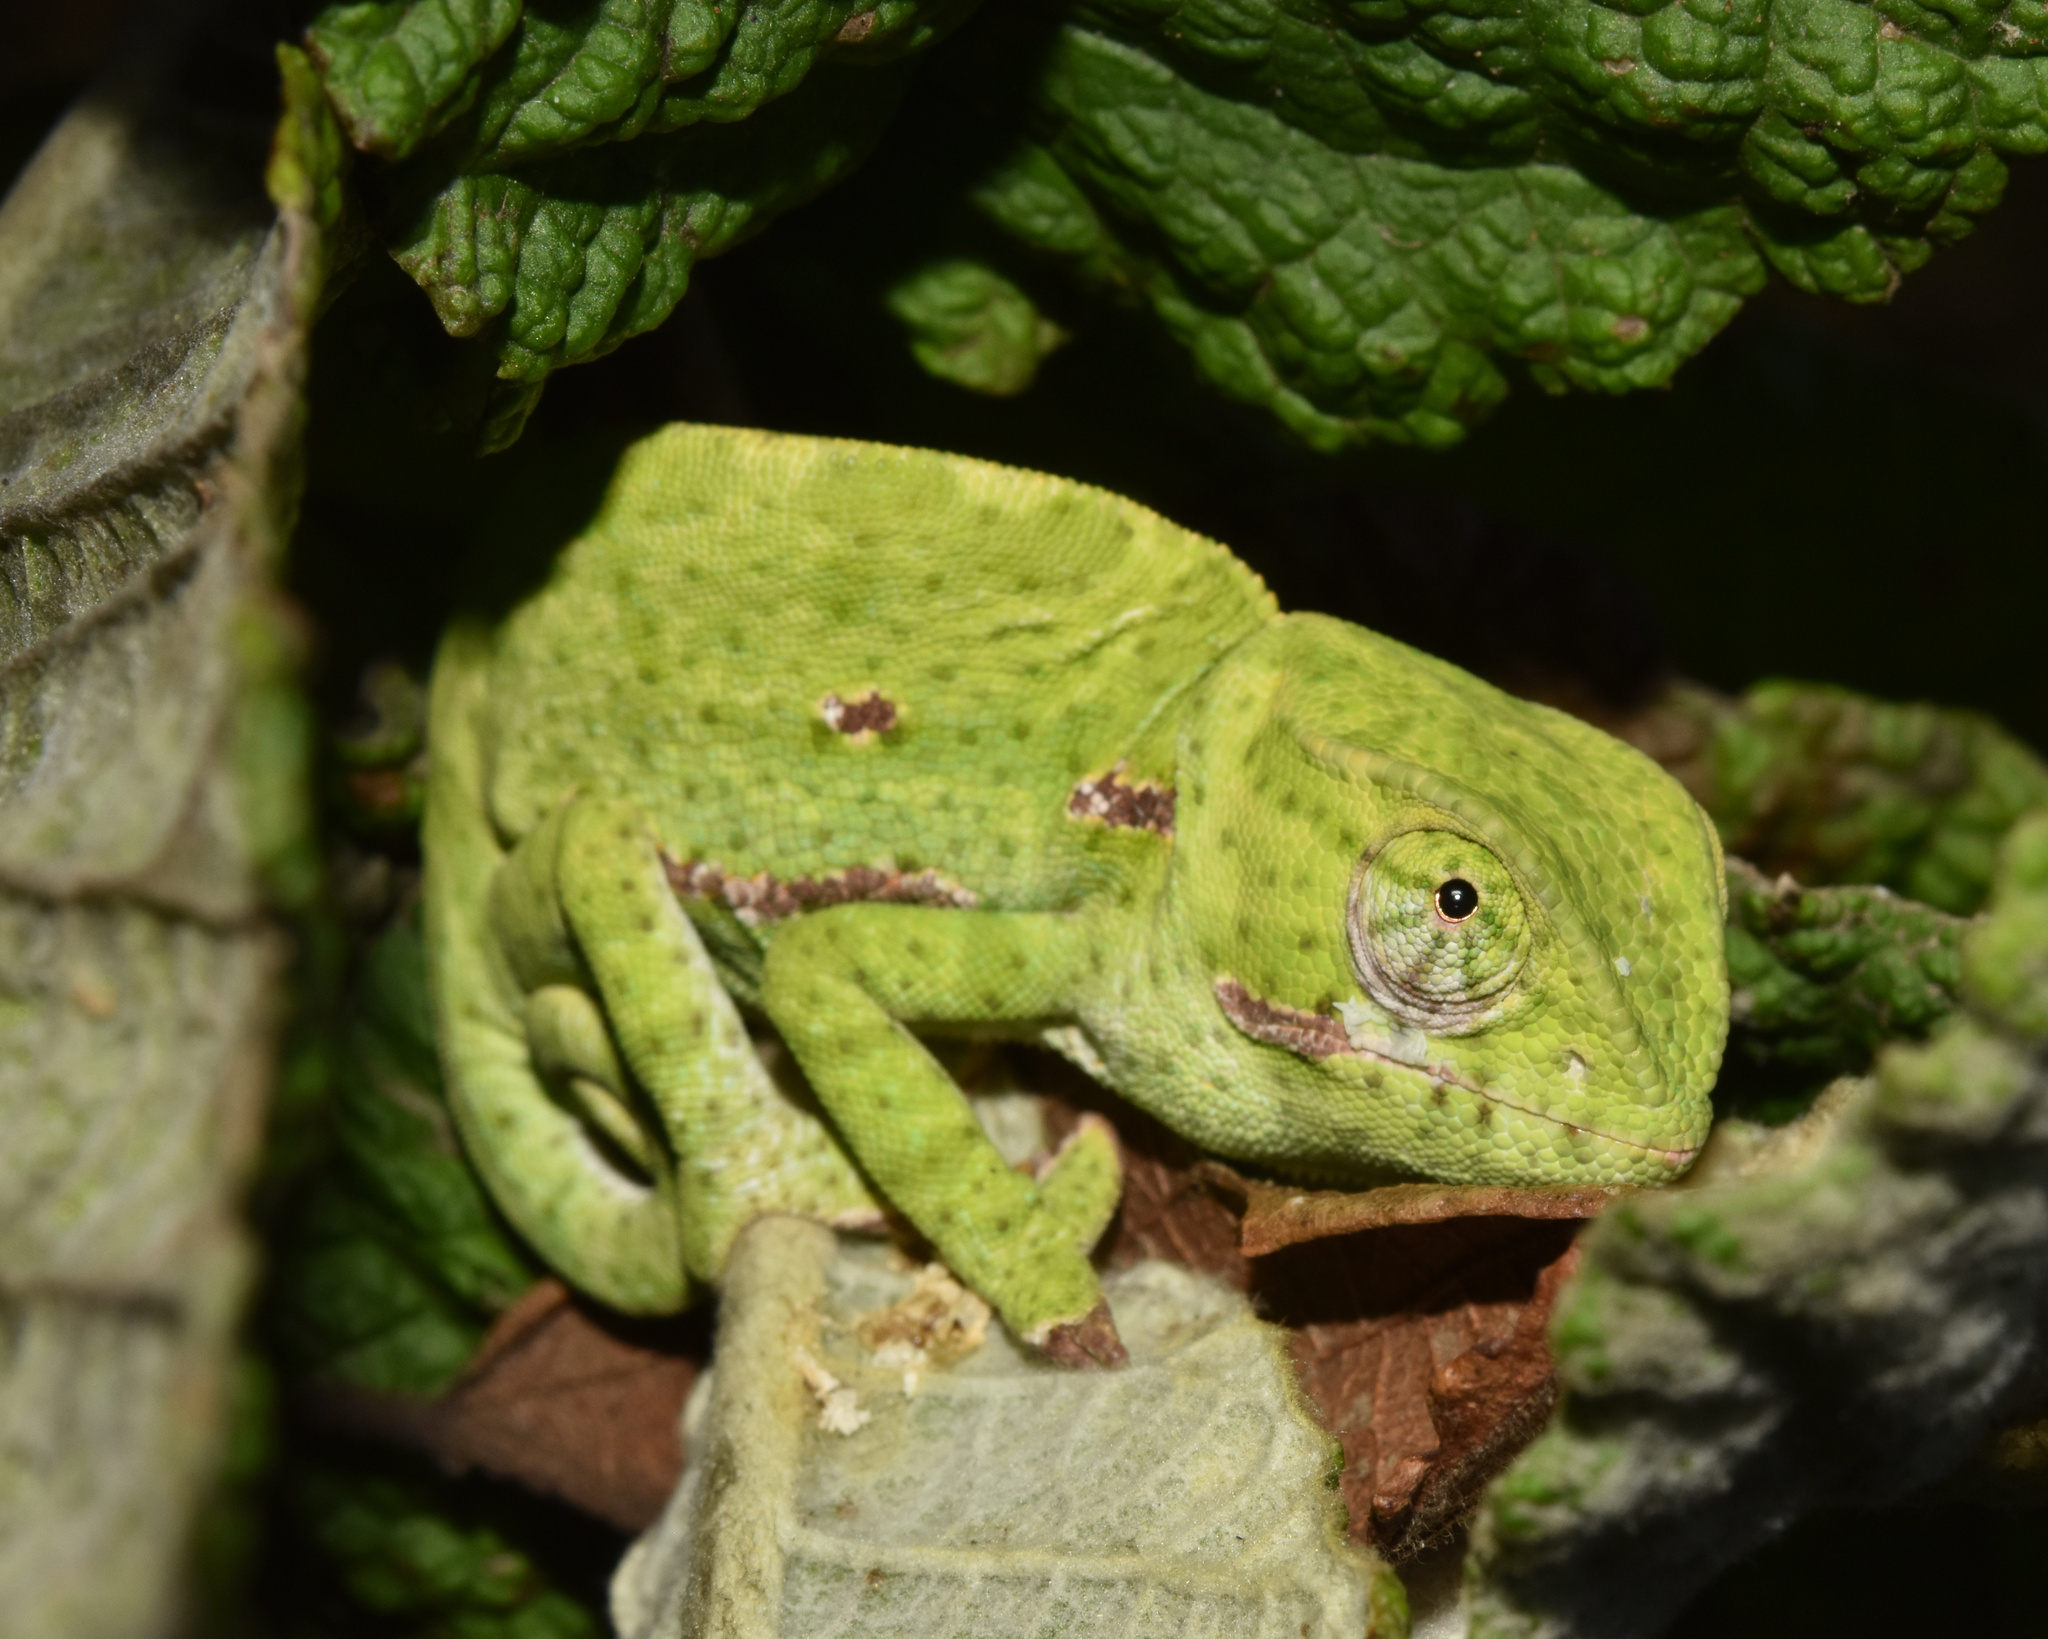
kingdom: Animalia
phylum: Chordata
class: Squamata
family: Chamaeleonidae
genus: Chamaeleo
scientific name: Chamaeleo dilepis
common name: Flapneck chameleon
